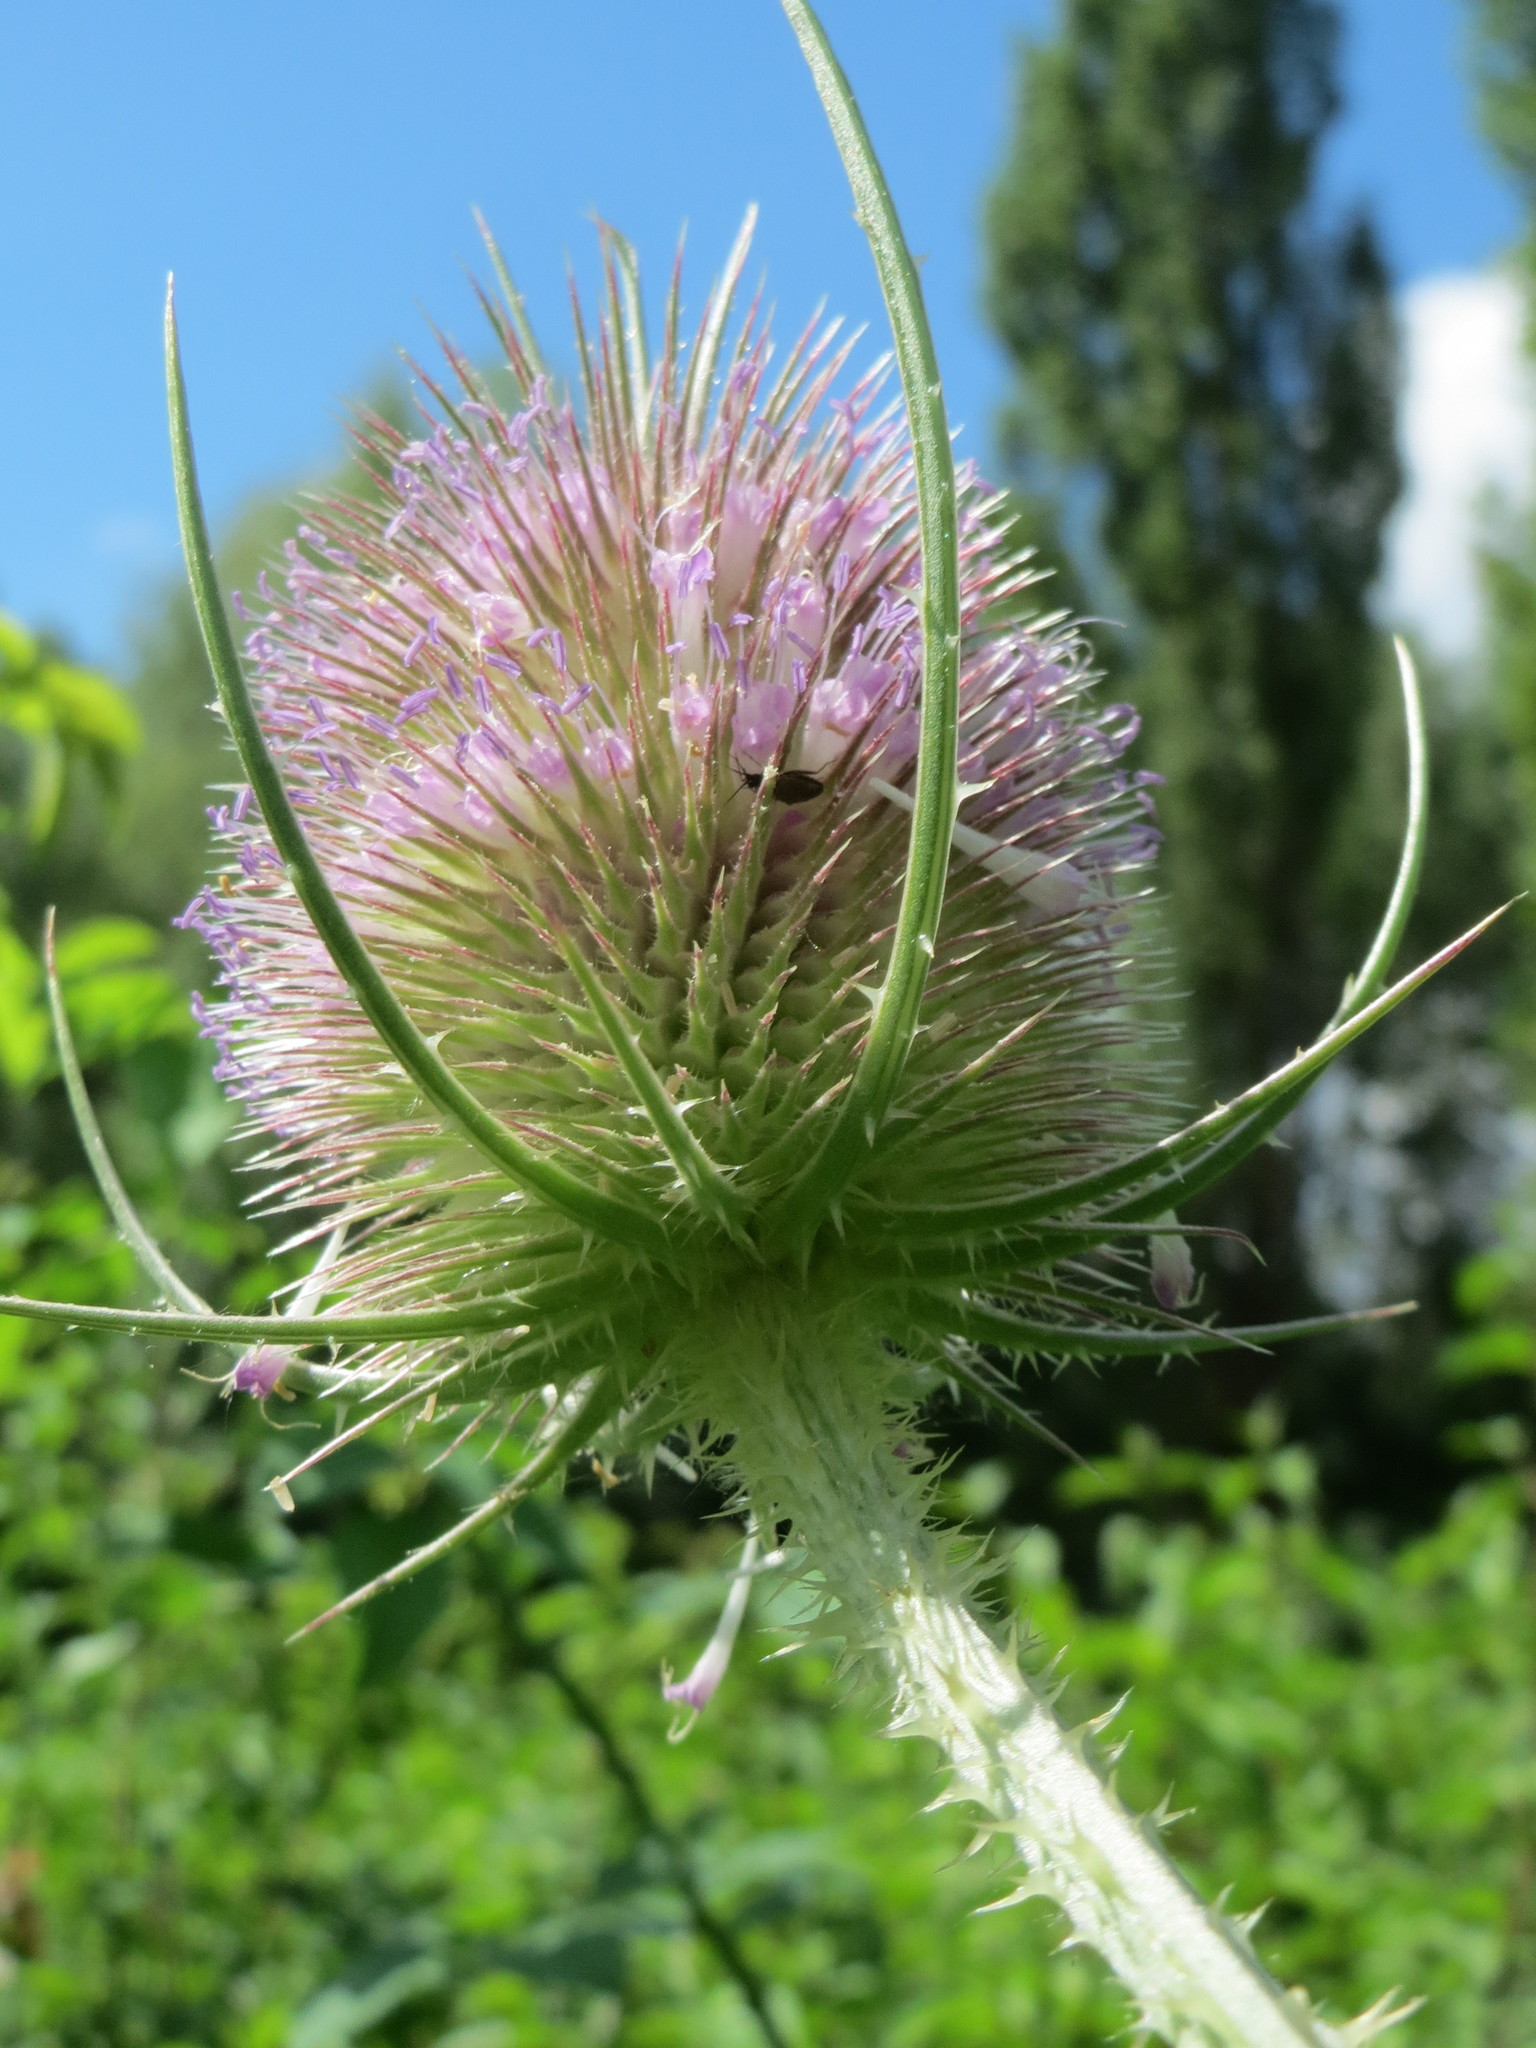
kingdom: Plantae
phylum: Tracheophyta
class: Magnoliopsida
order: Dipsacales
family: Caprifoliaceae
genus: Dipsacus
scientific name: Dipsacus fullonum
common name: Teasel
